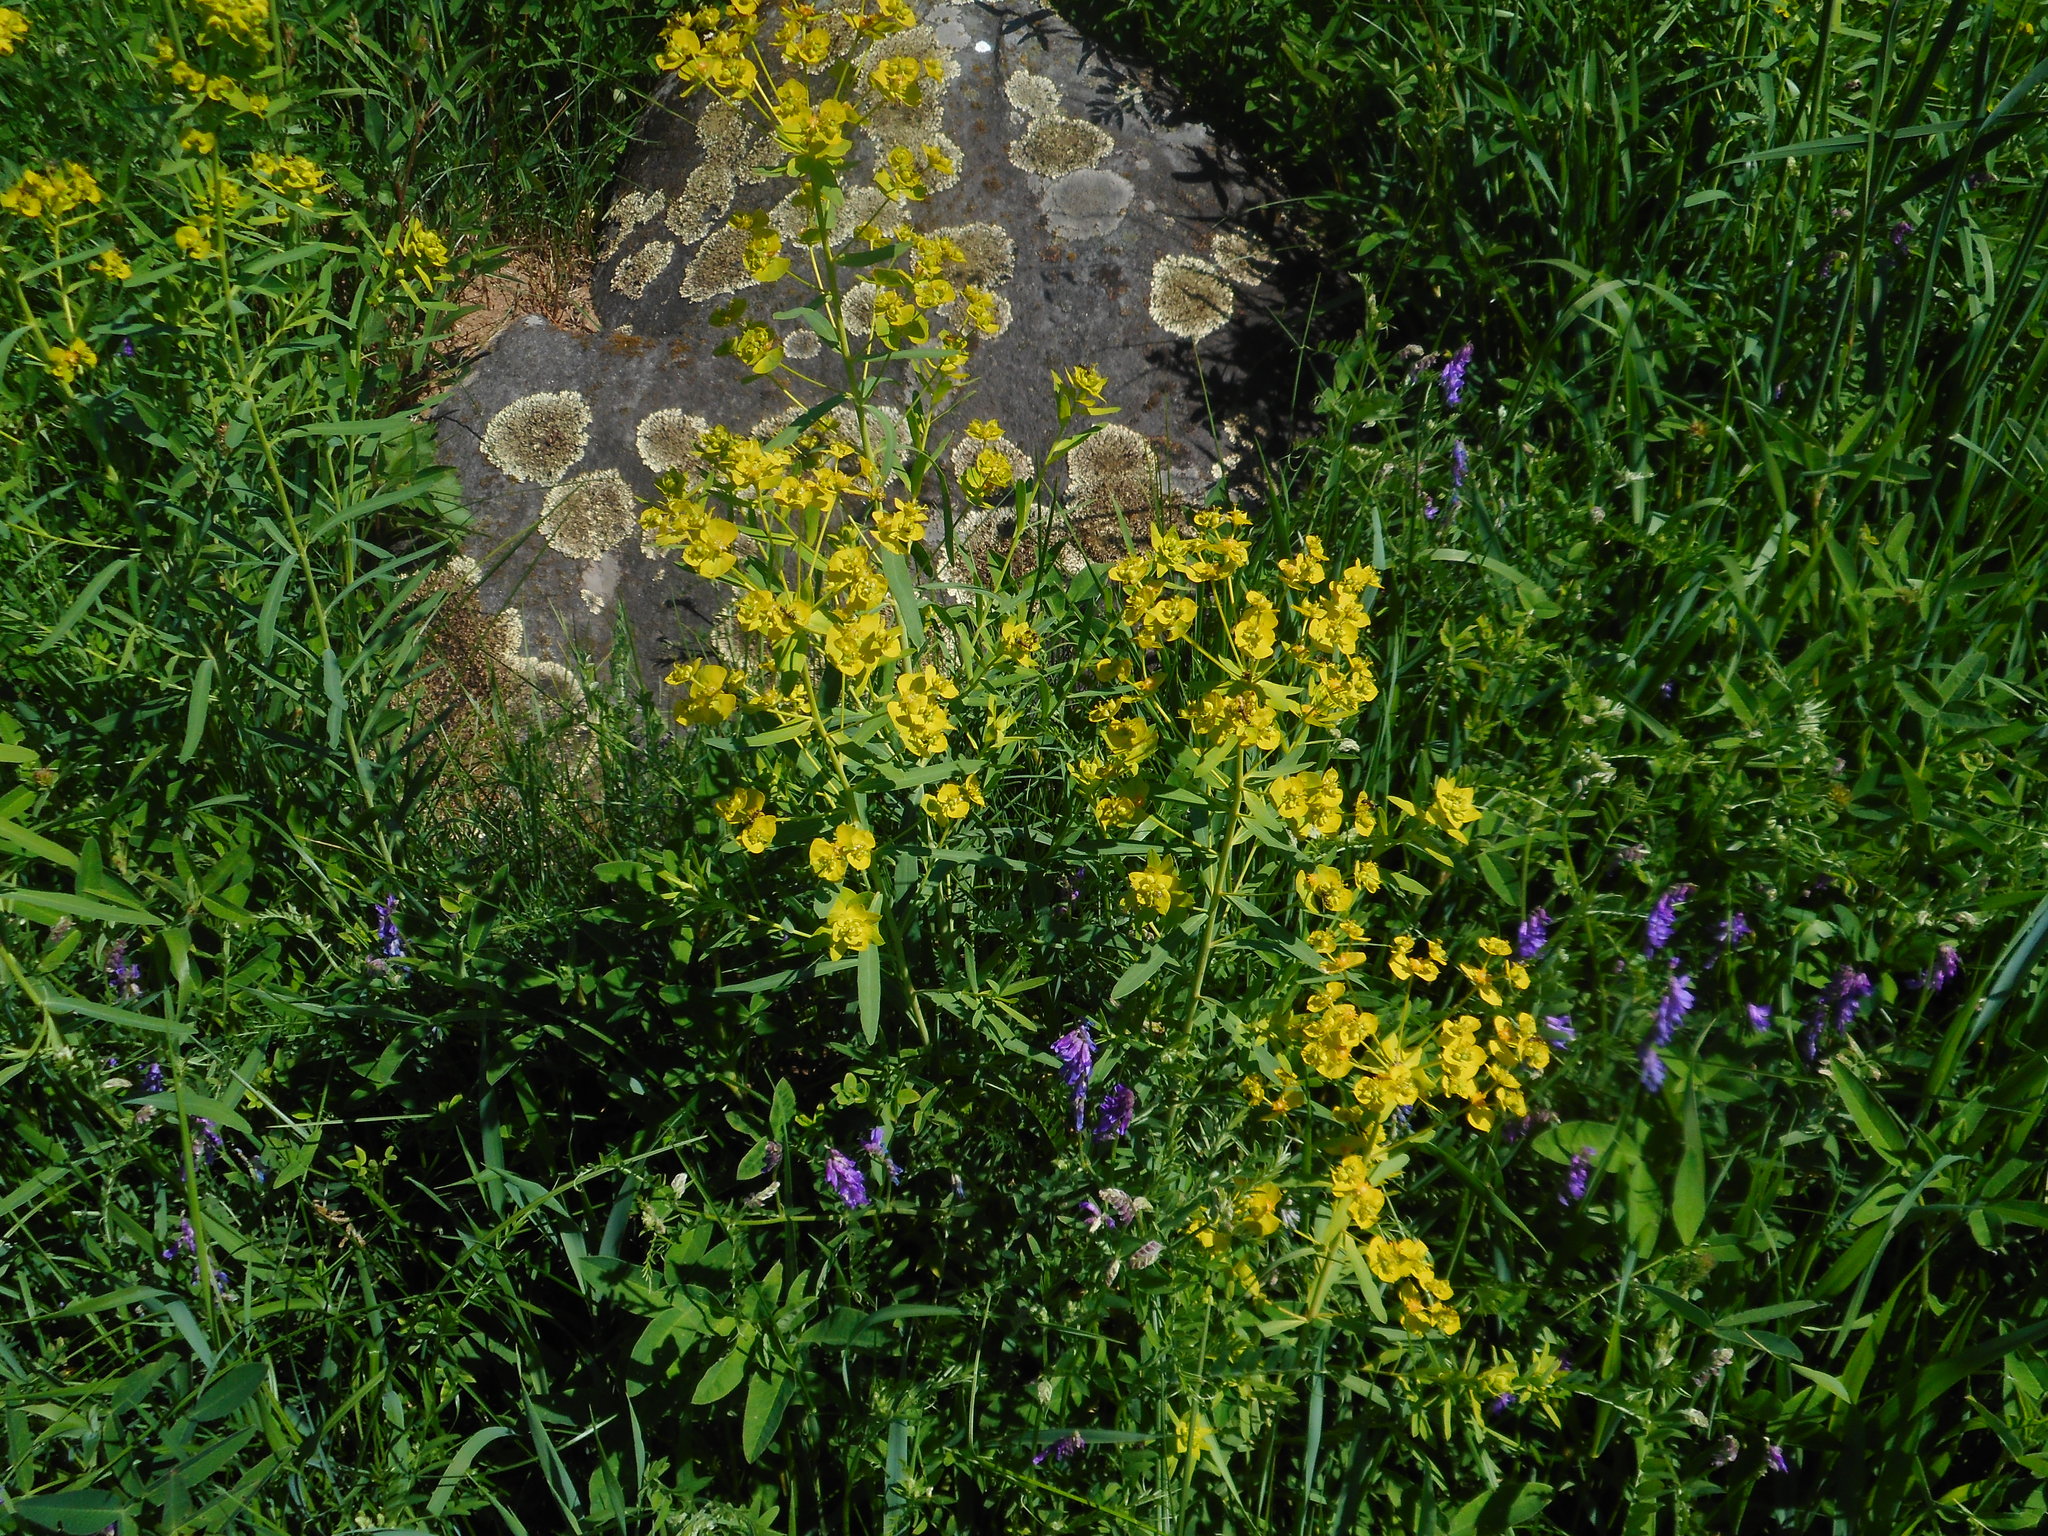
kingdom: Plantae
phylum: Tracheophyta
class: Magnoliopsida
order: Malpighiales
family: Euphorbiaceae
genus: Euphorbia
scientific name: Euphorbia virgata
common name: Leafy spurge
